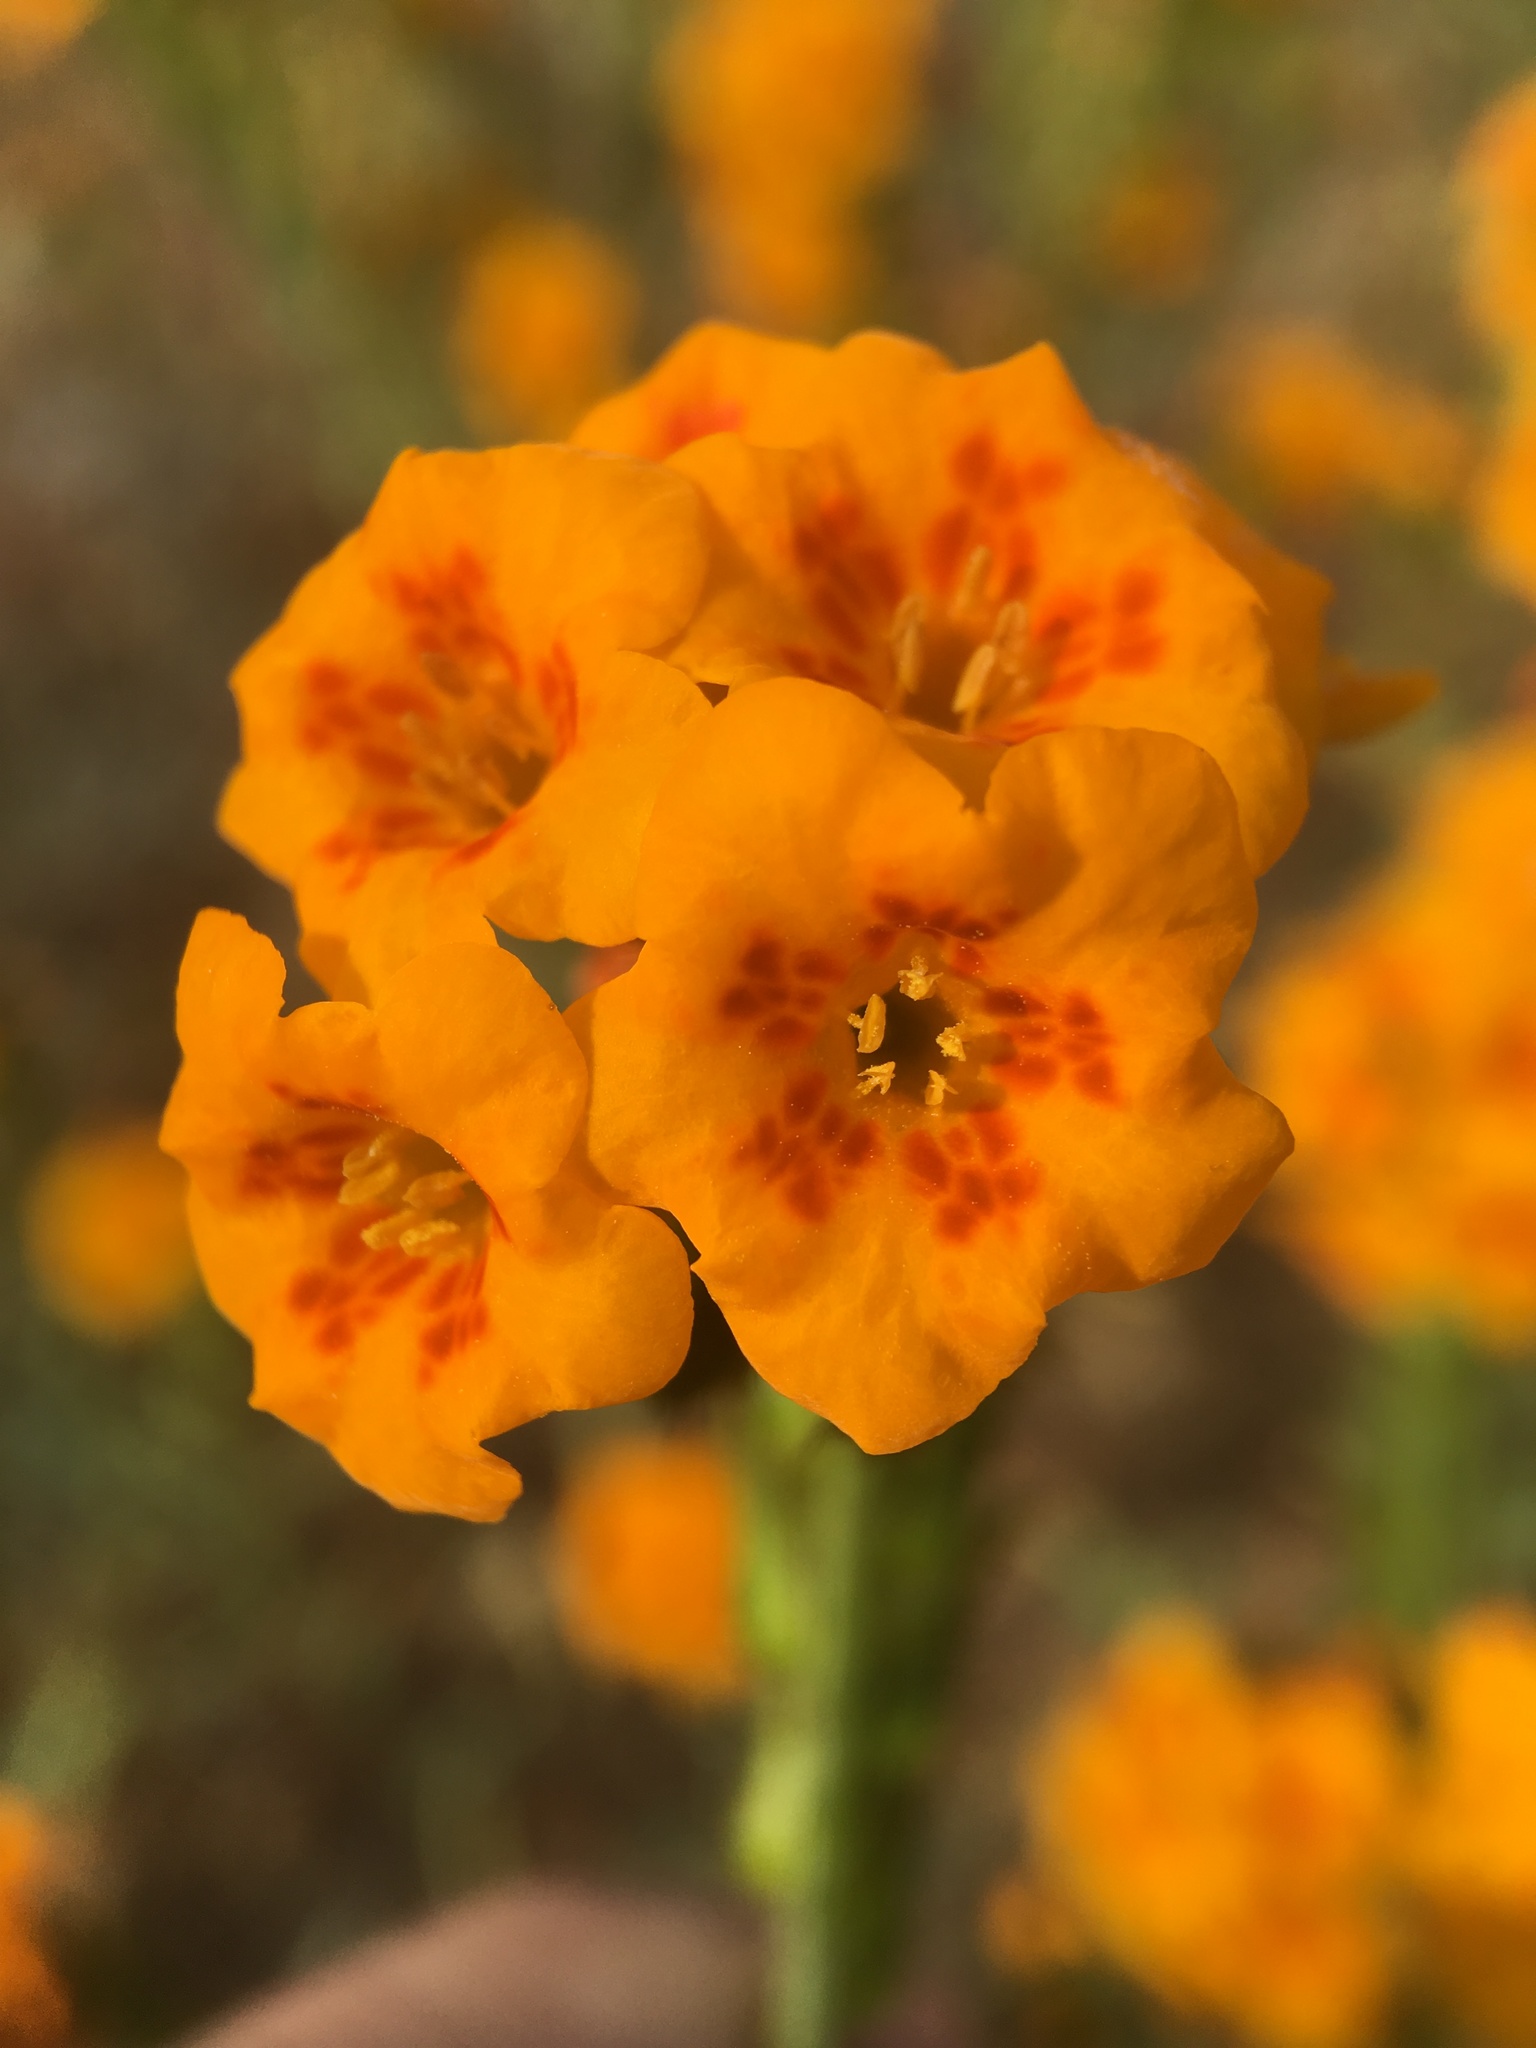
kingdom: Plantae
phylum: Tracheophyta
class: Magnoliopsida
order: Boraginales
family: Boraginaceae
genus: Amsinckia
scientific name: Amsinckia vernicosa
